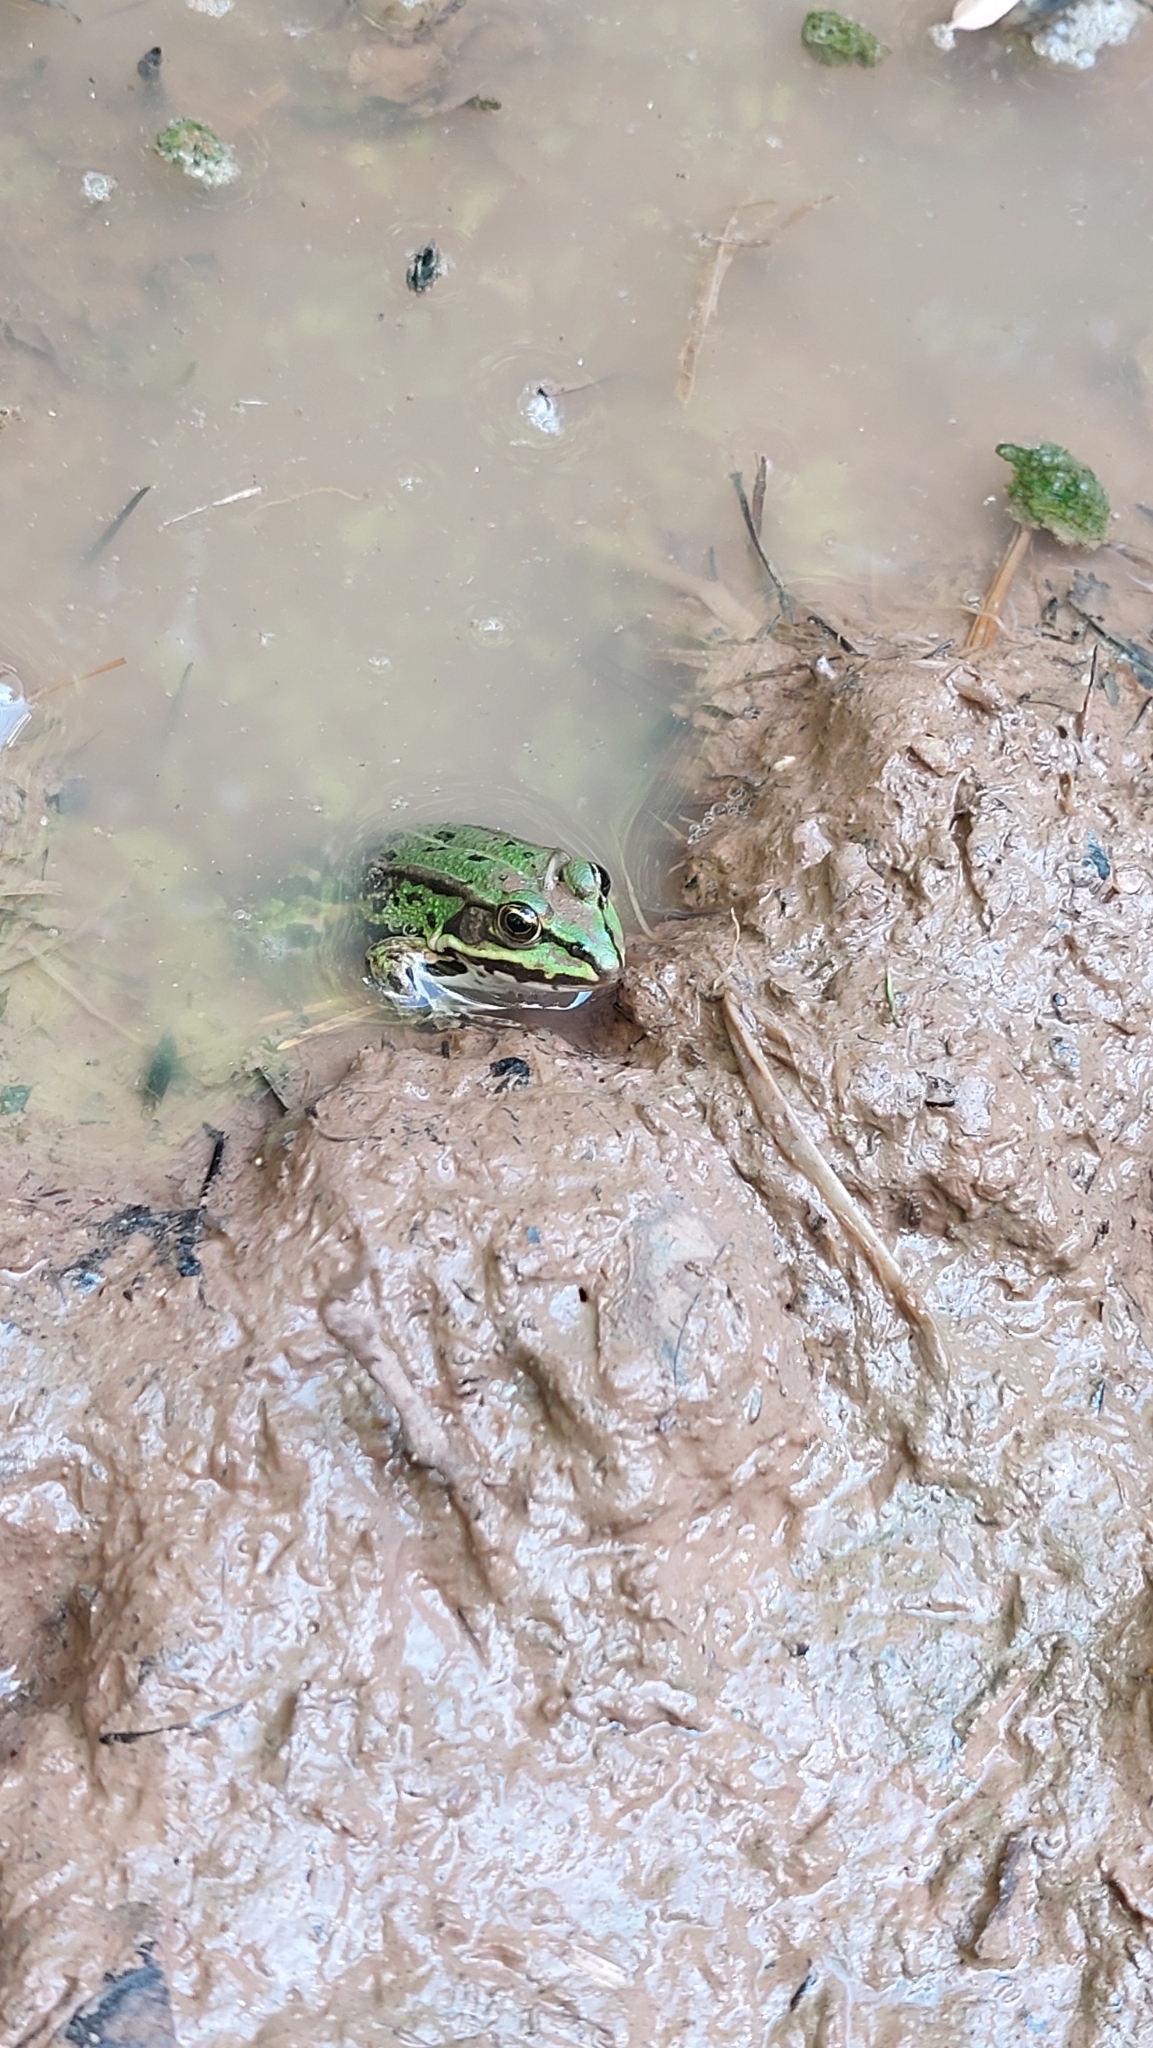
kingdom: Animalia
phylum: Chordata
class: Amphibia
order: Anura
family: Ranidae
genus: Pelophylax
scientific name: Pelophylax ridibundus
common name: Marsh frog
